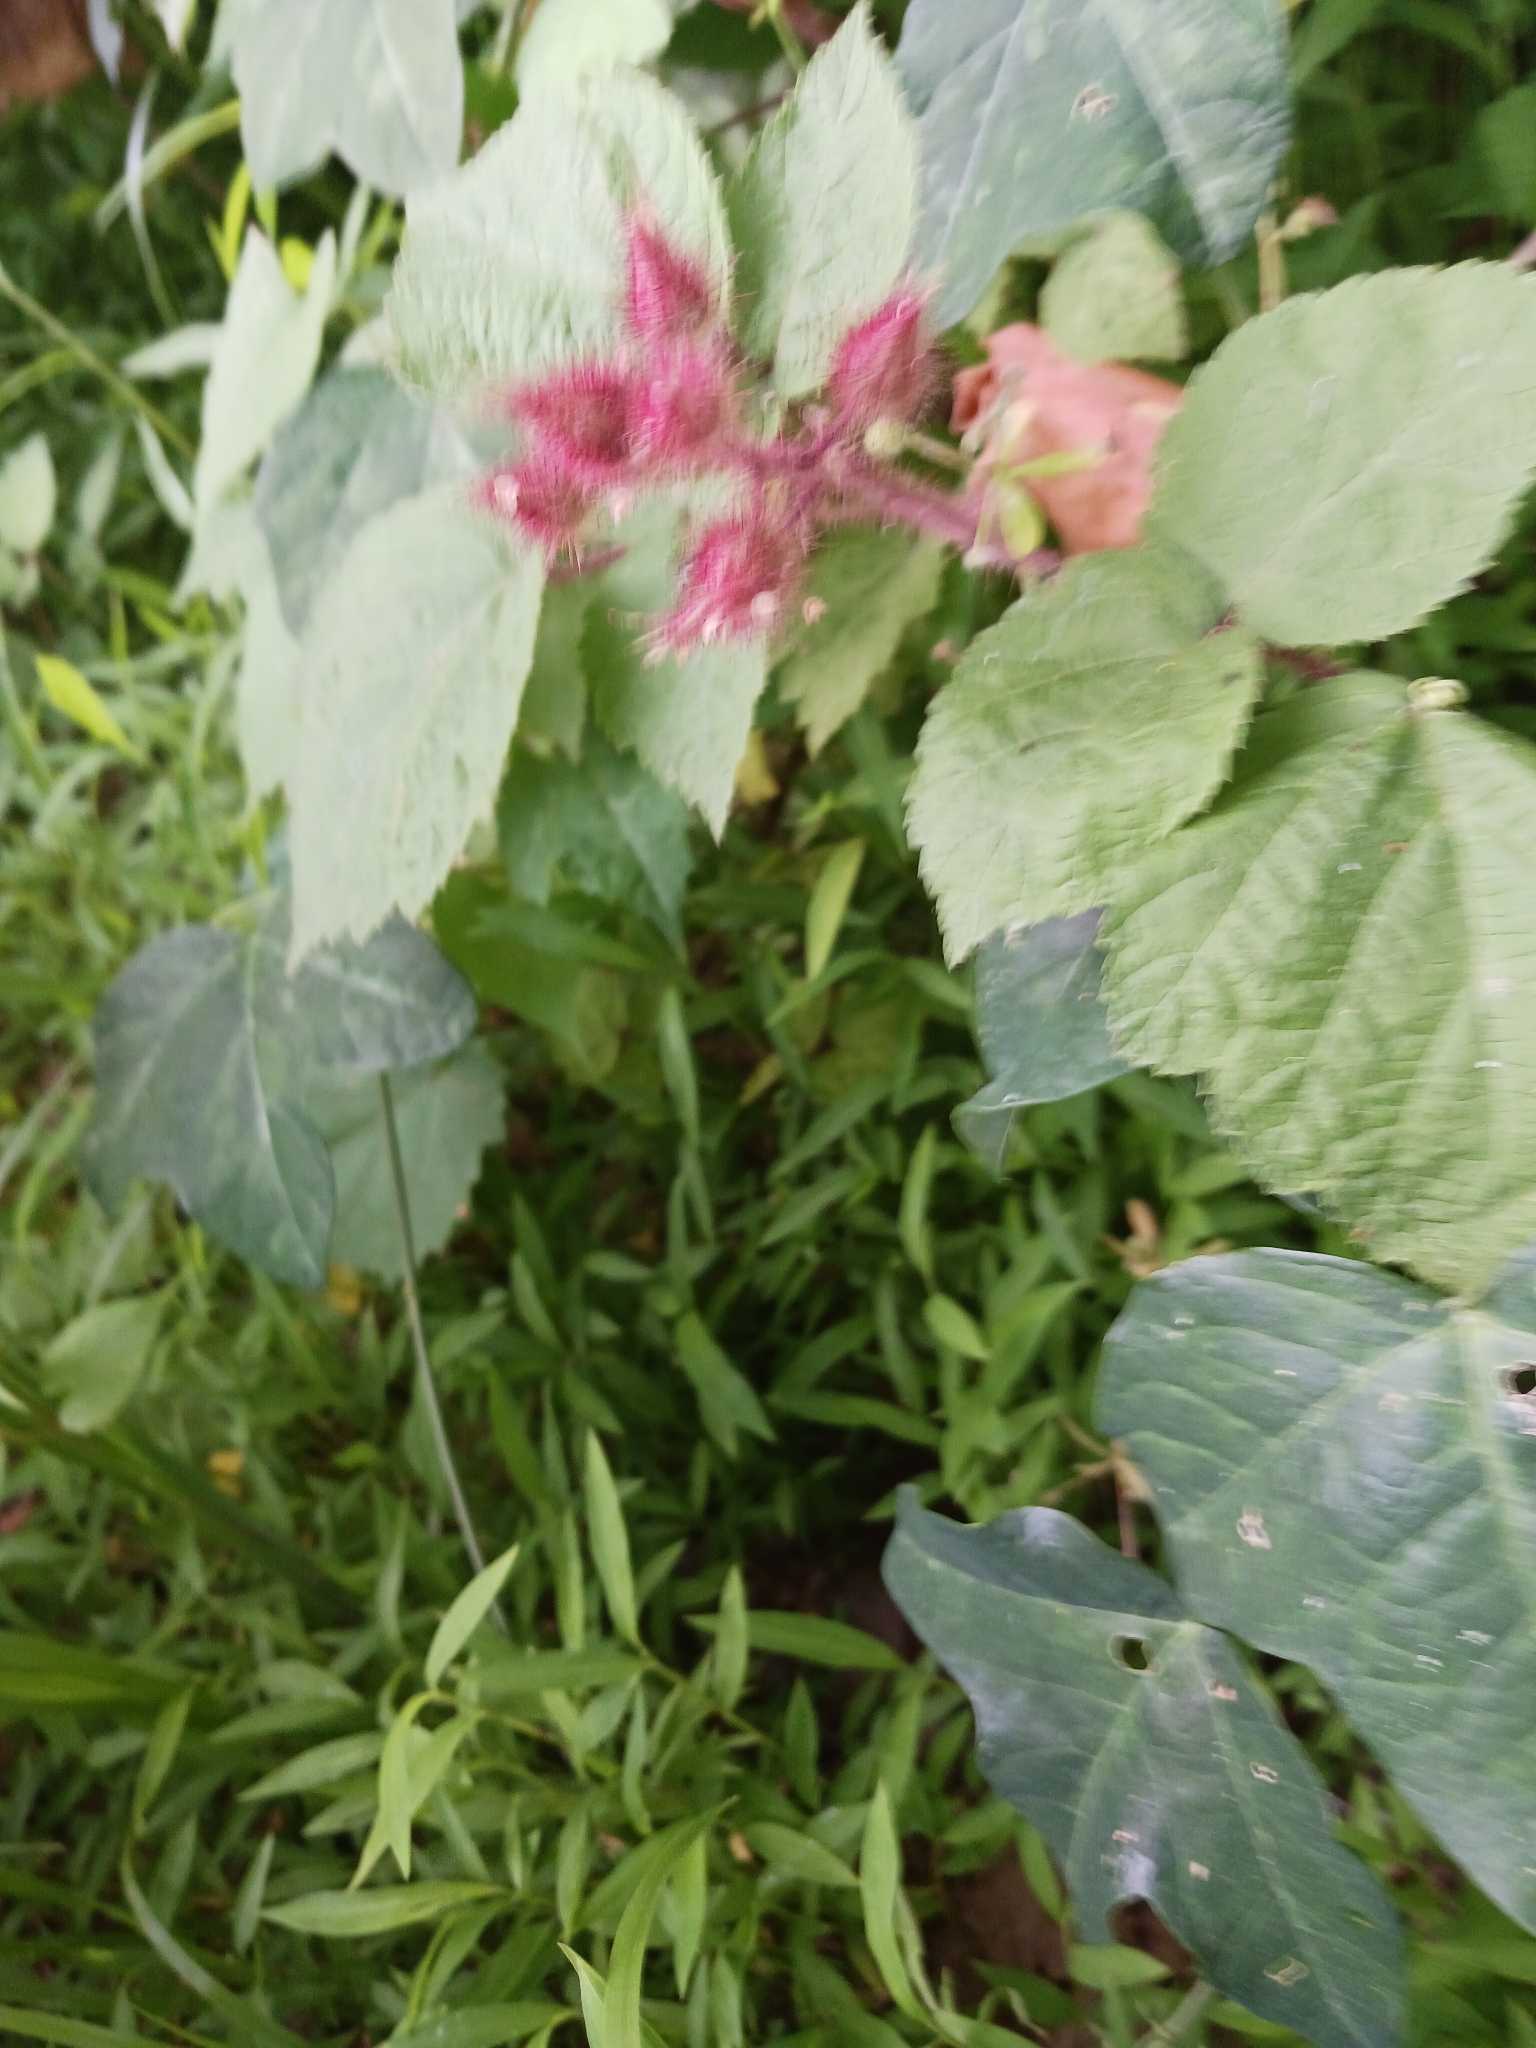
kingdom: Plantae
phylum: Tracheophyta
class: Magnoliopsida
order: Rosales
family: Rosaceae
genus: Rubus
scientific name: Rubus phoenicolasius
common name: Japanese wineberry
